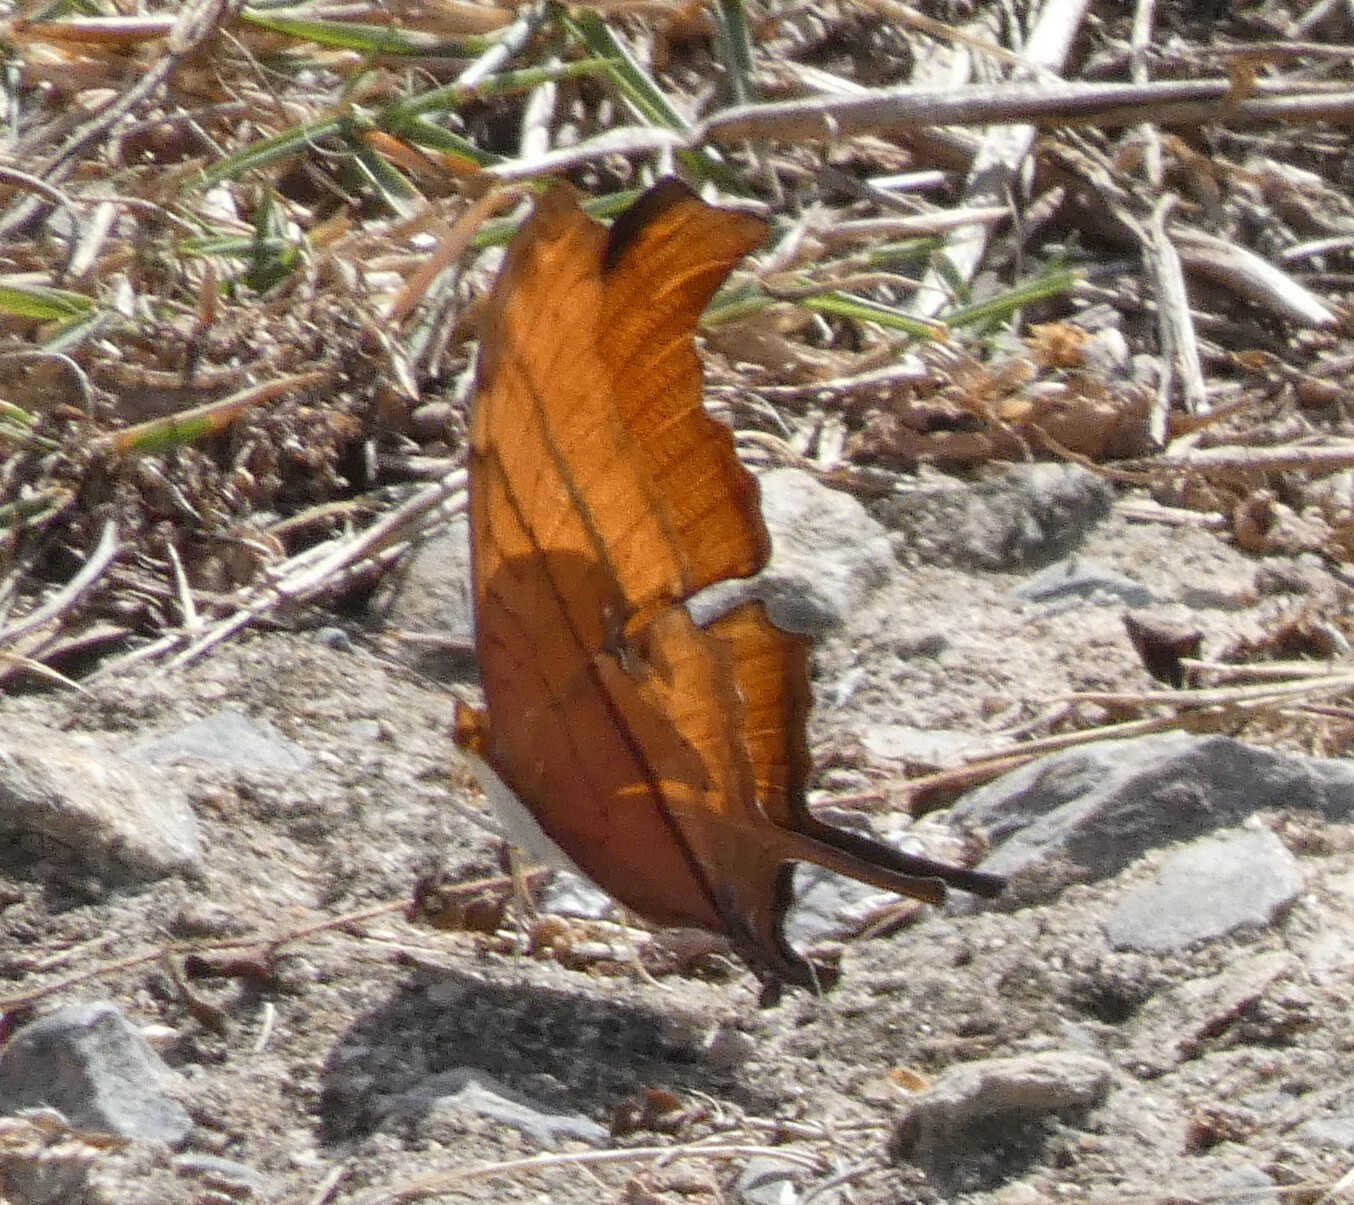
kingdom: Animalia
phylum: Arthropoda
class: Insecta
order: Lepidoptera
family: Nymphalidae
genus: Marpesia
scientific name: Marpesia petreus
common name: Red dagger wing
